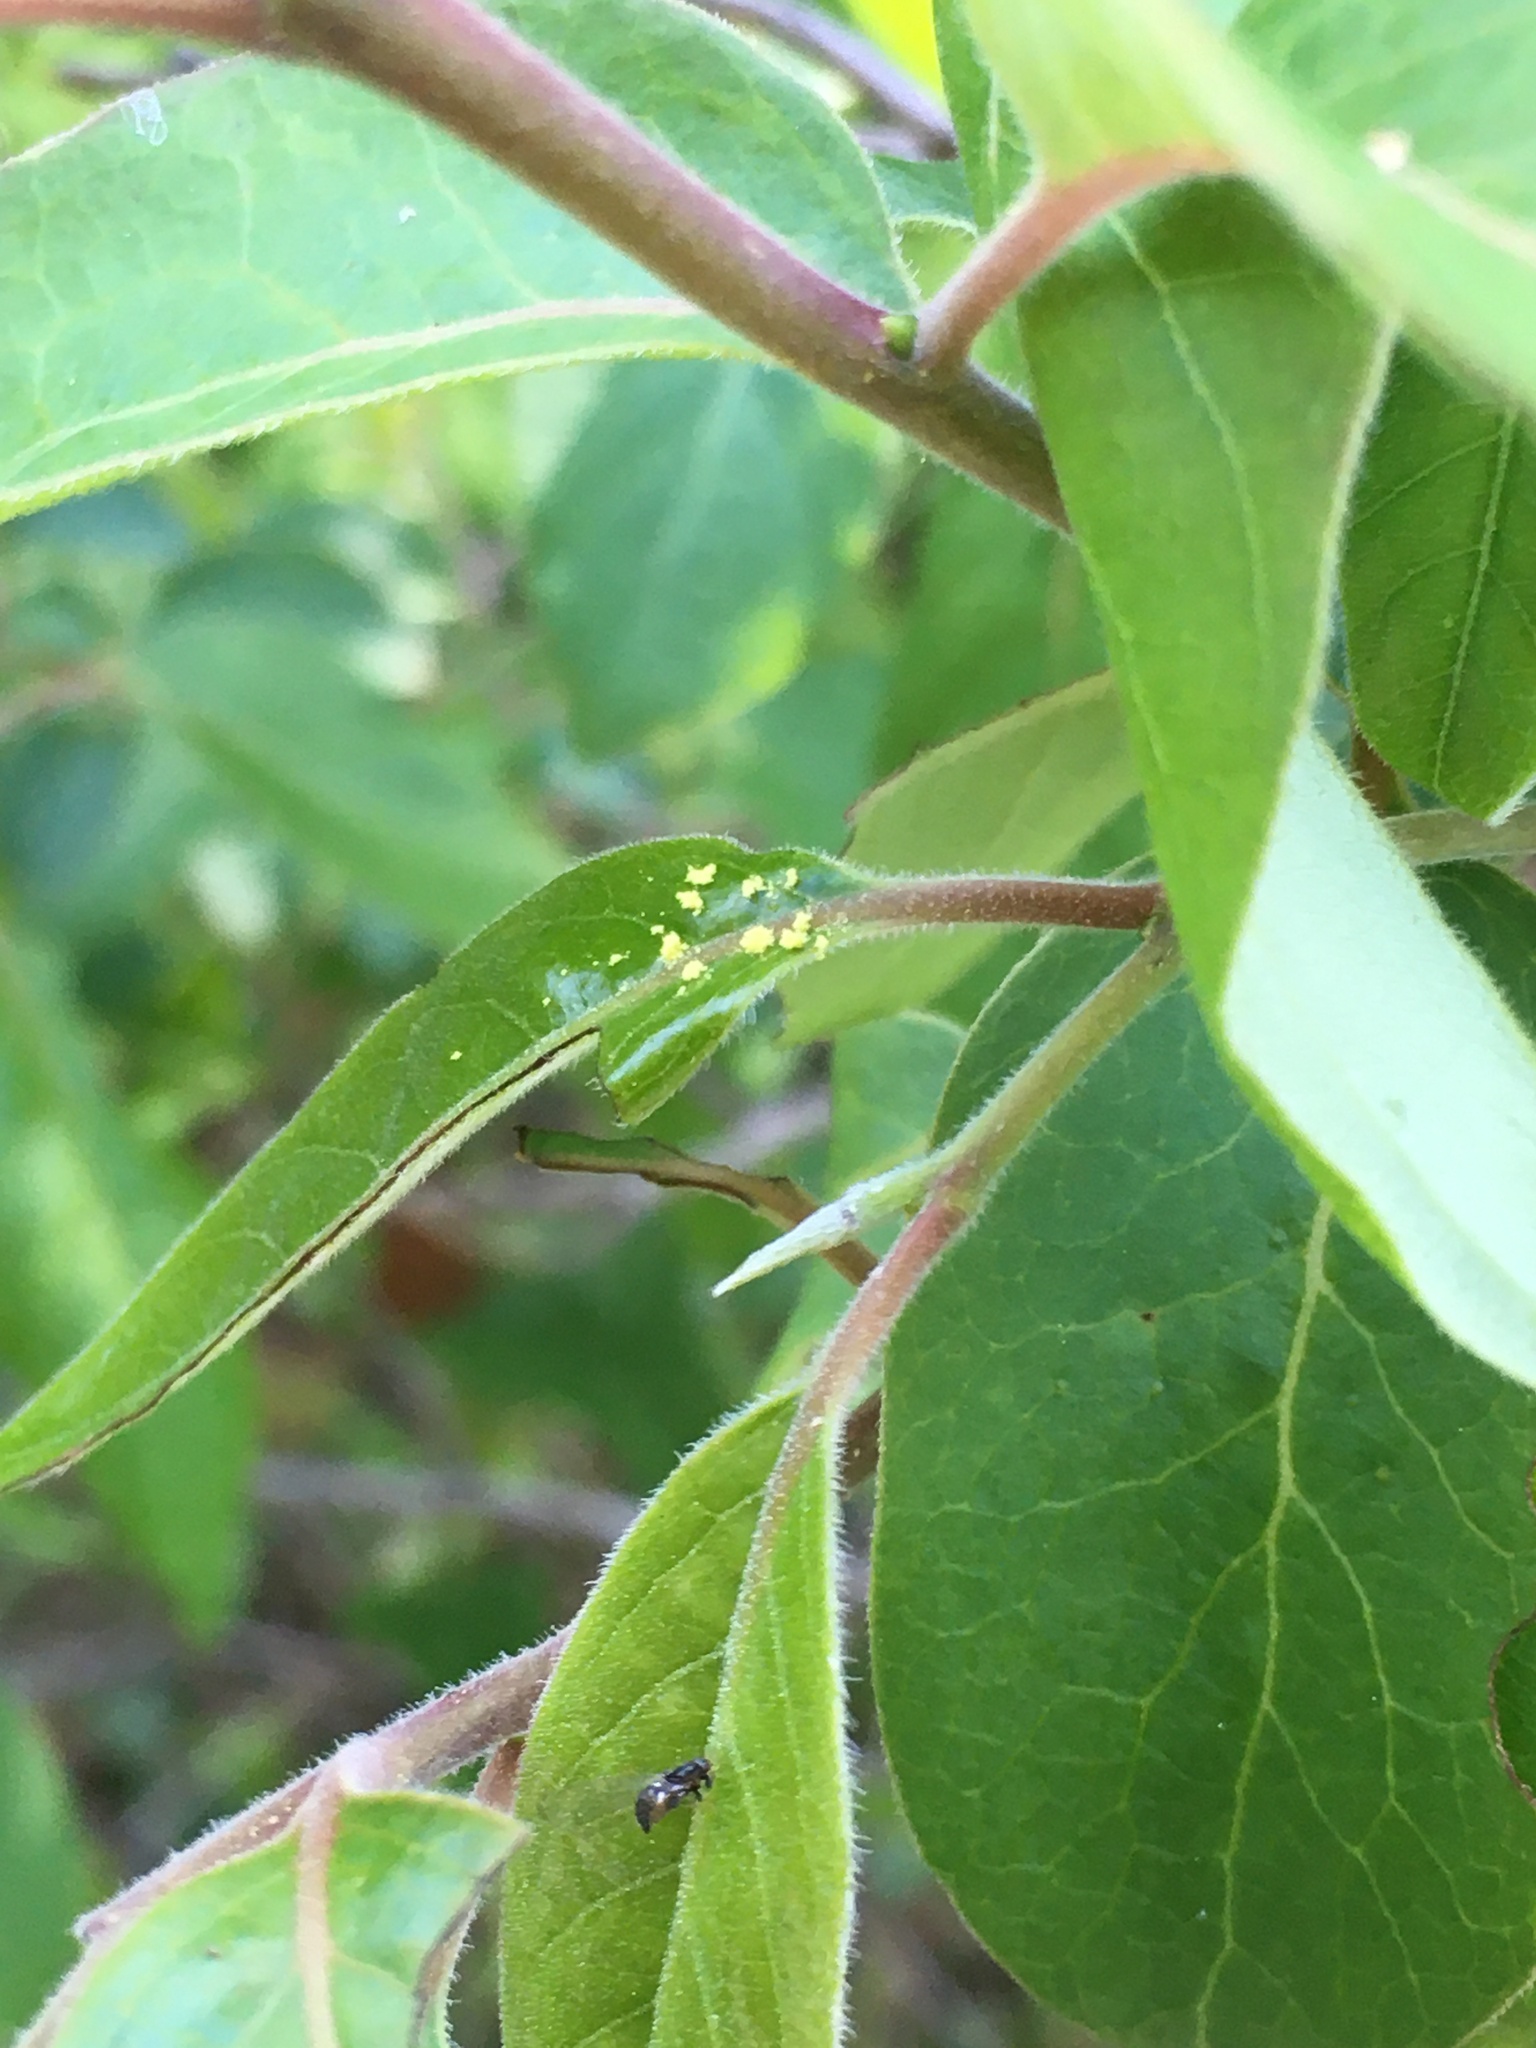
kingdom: Plantae
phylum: Tracheophyta
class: Magnoliopsida
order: Ericales
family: Ebenaceae
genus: Diospyros
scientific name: Diospyros virginiana
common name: Persimmon
